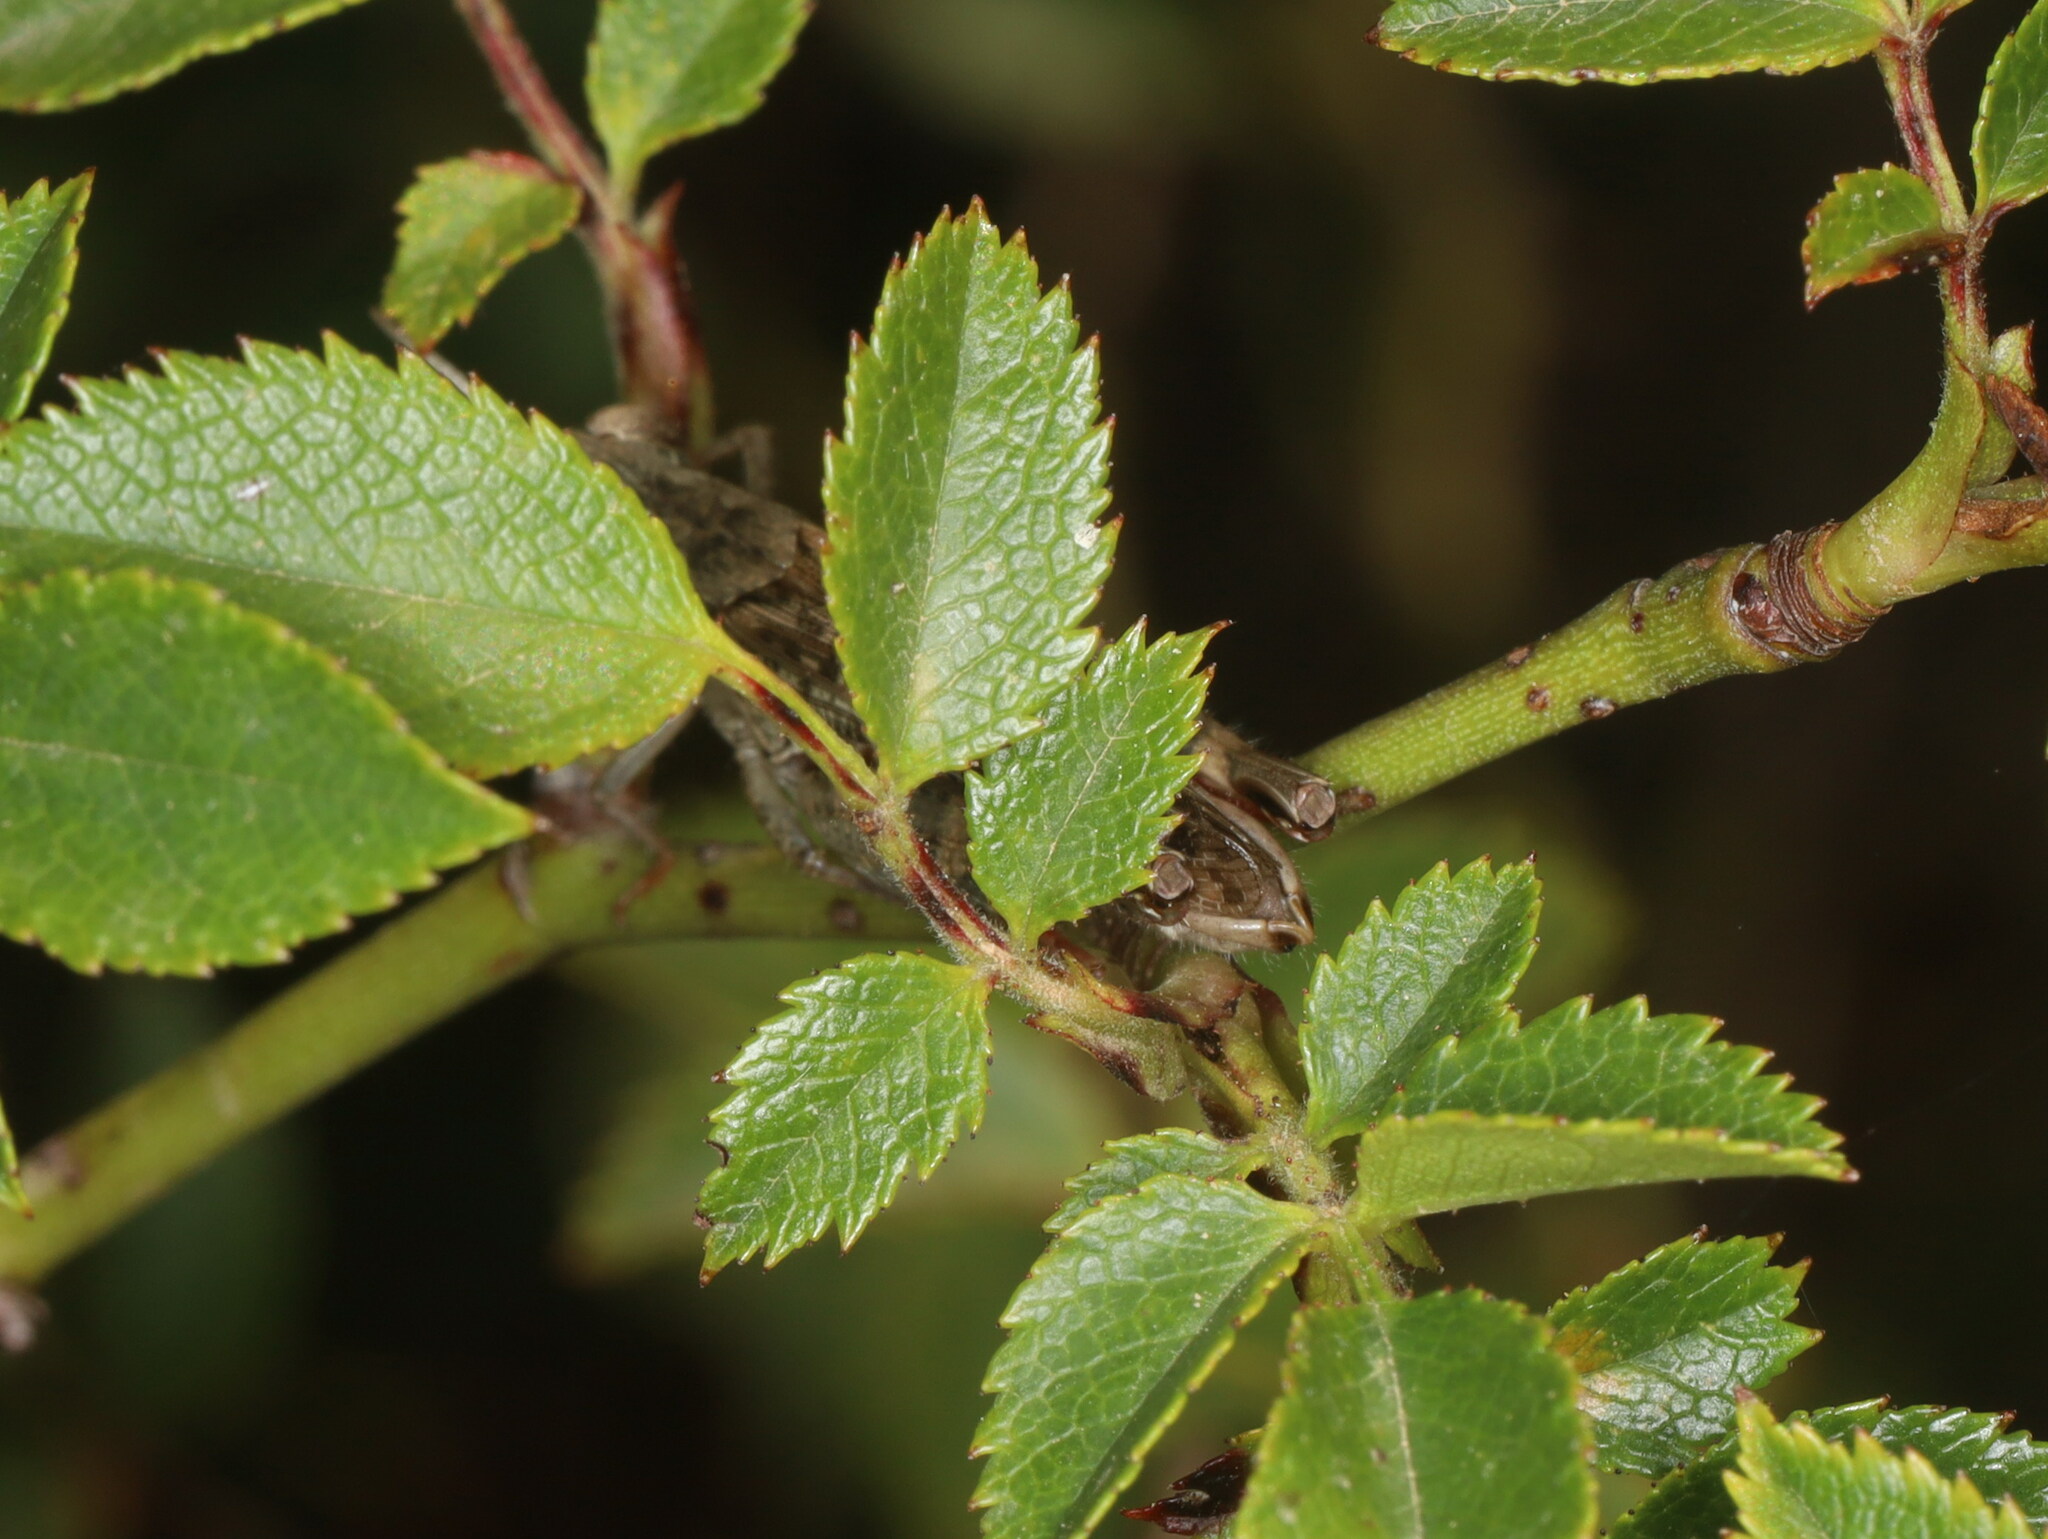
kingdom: Animalia
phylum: Arthropoda
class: Insecta
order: Orthoptera
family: Acrididae
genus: Calliptamus
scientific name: Calliptamus barbarus
